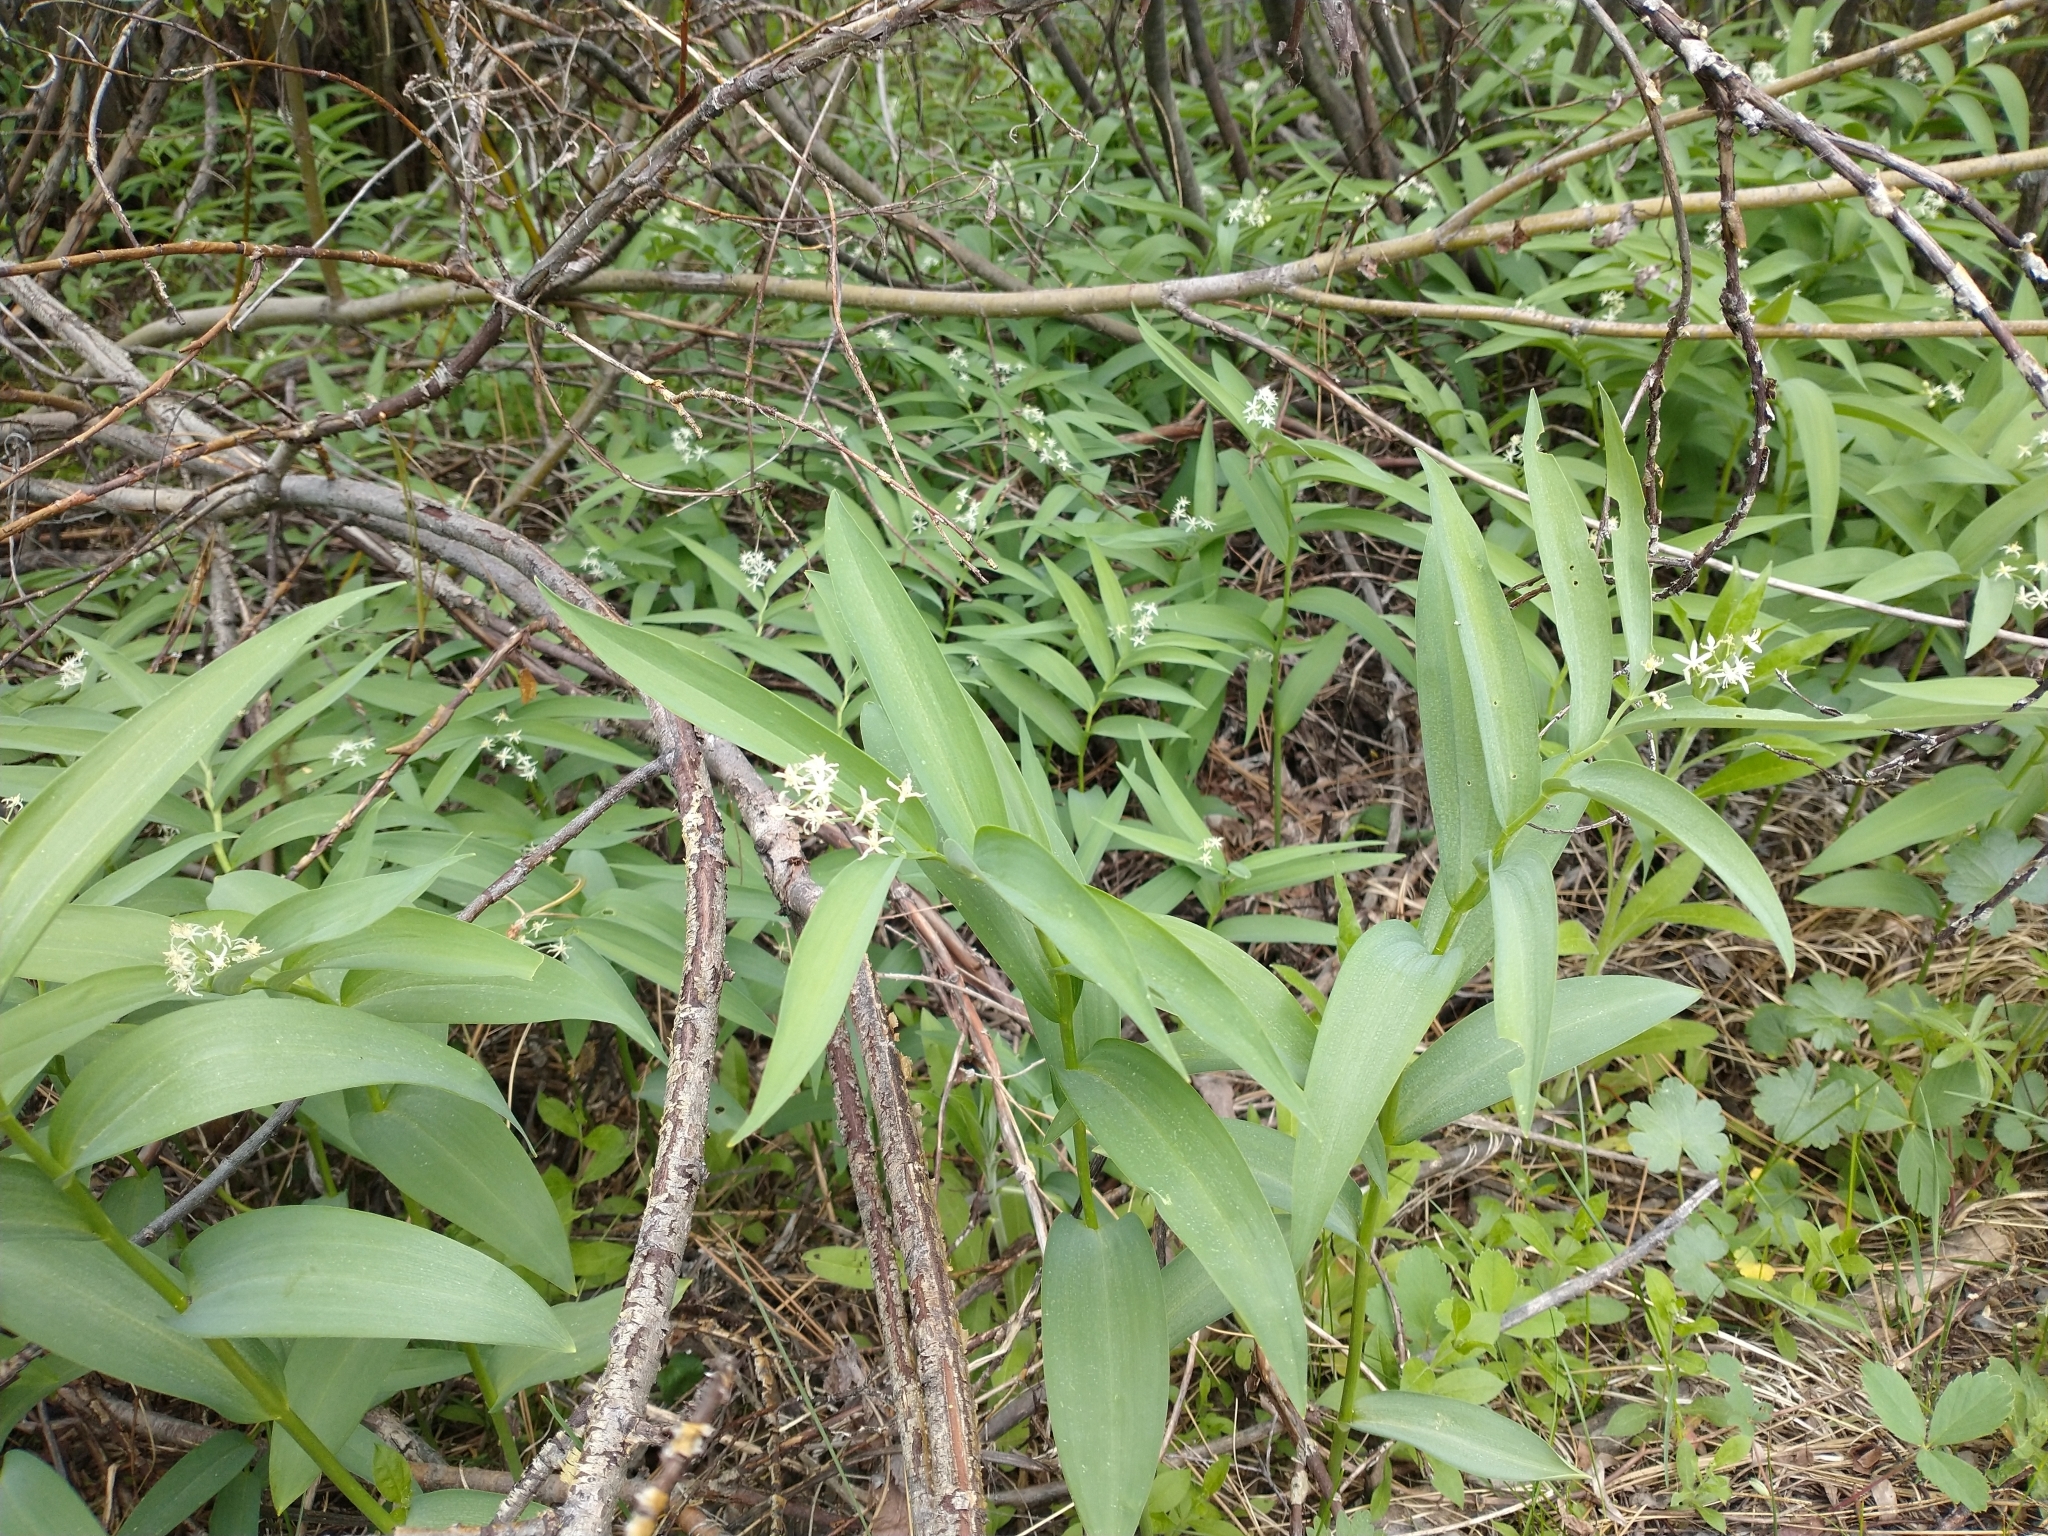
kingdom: Plantae
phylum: Tracheophyta
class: Liliopsida
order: Asparagales
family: Asparagaceae
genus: Maianthemum
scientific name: Maianthemum stellatum
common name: Little false solomon's seal
